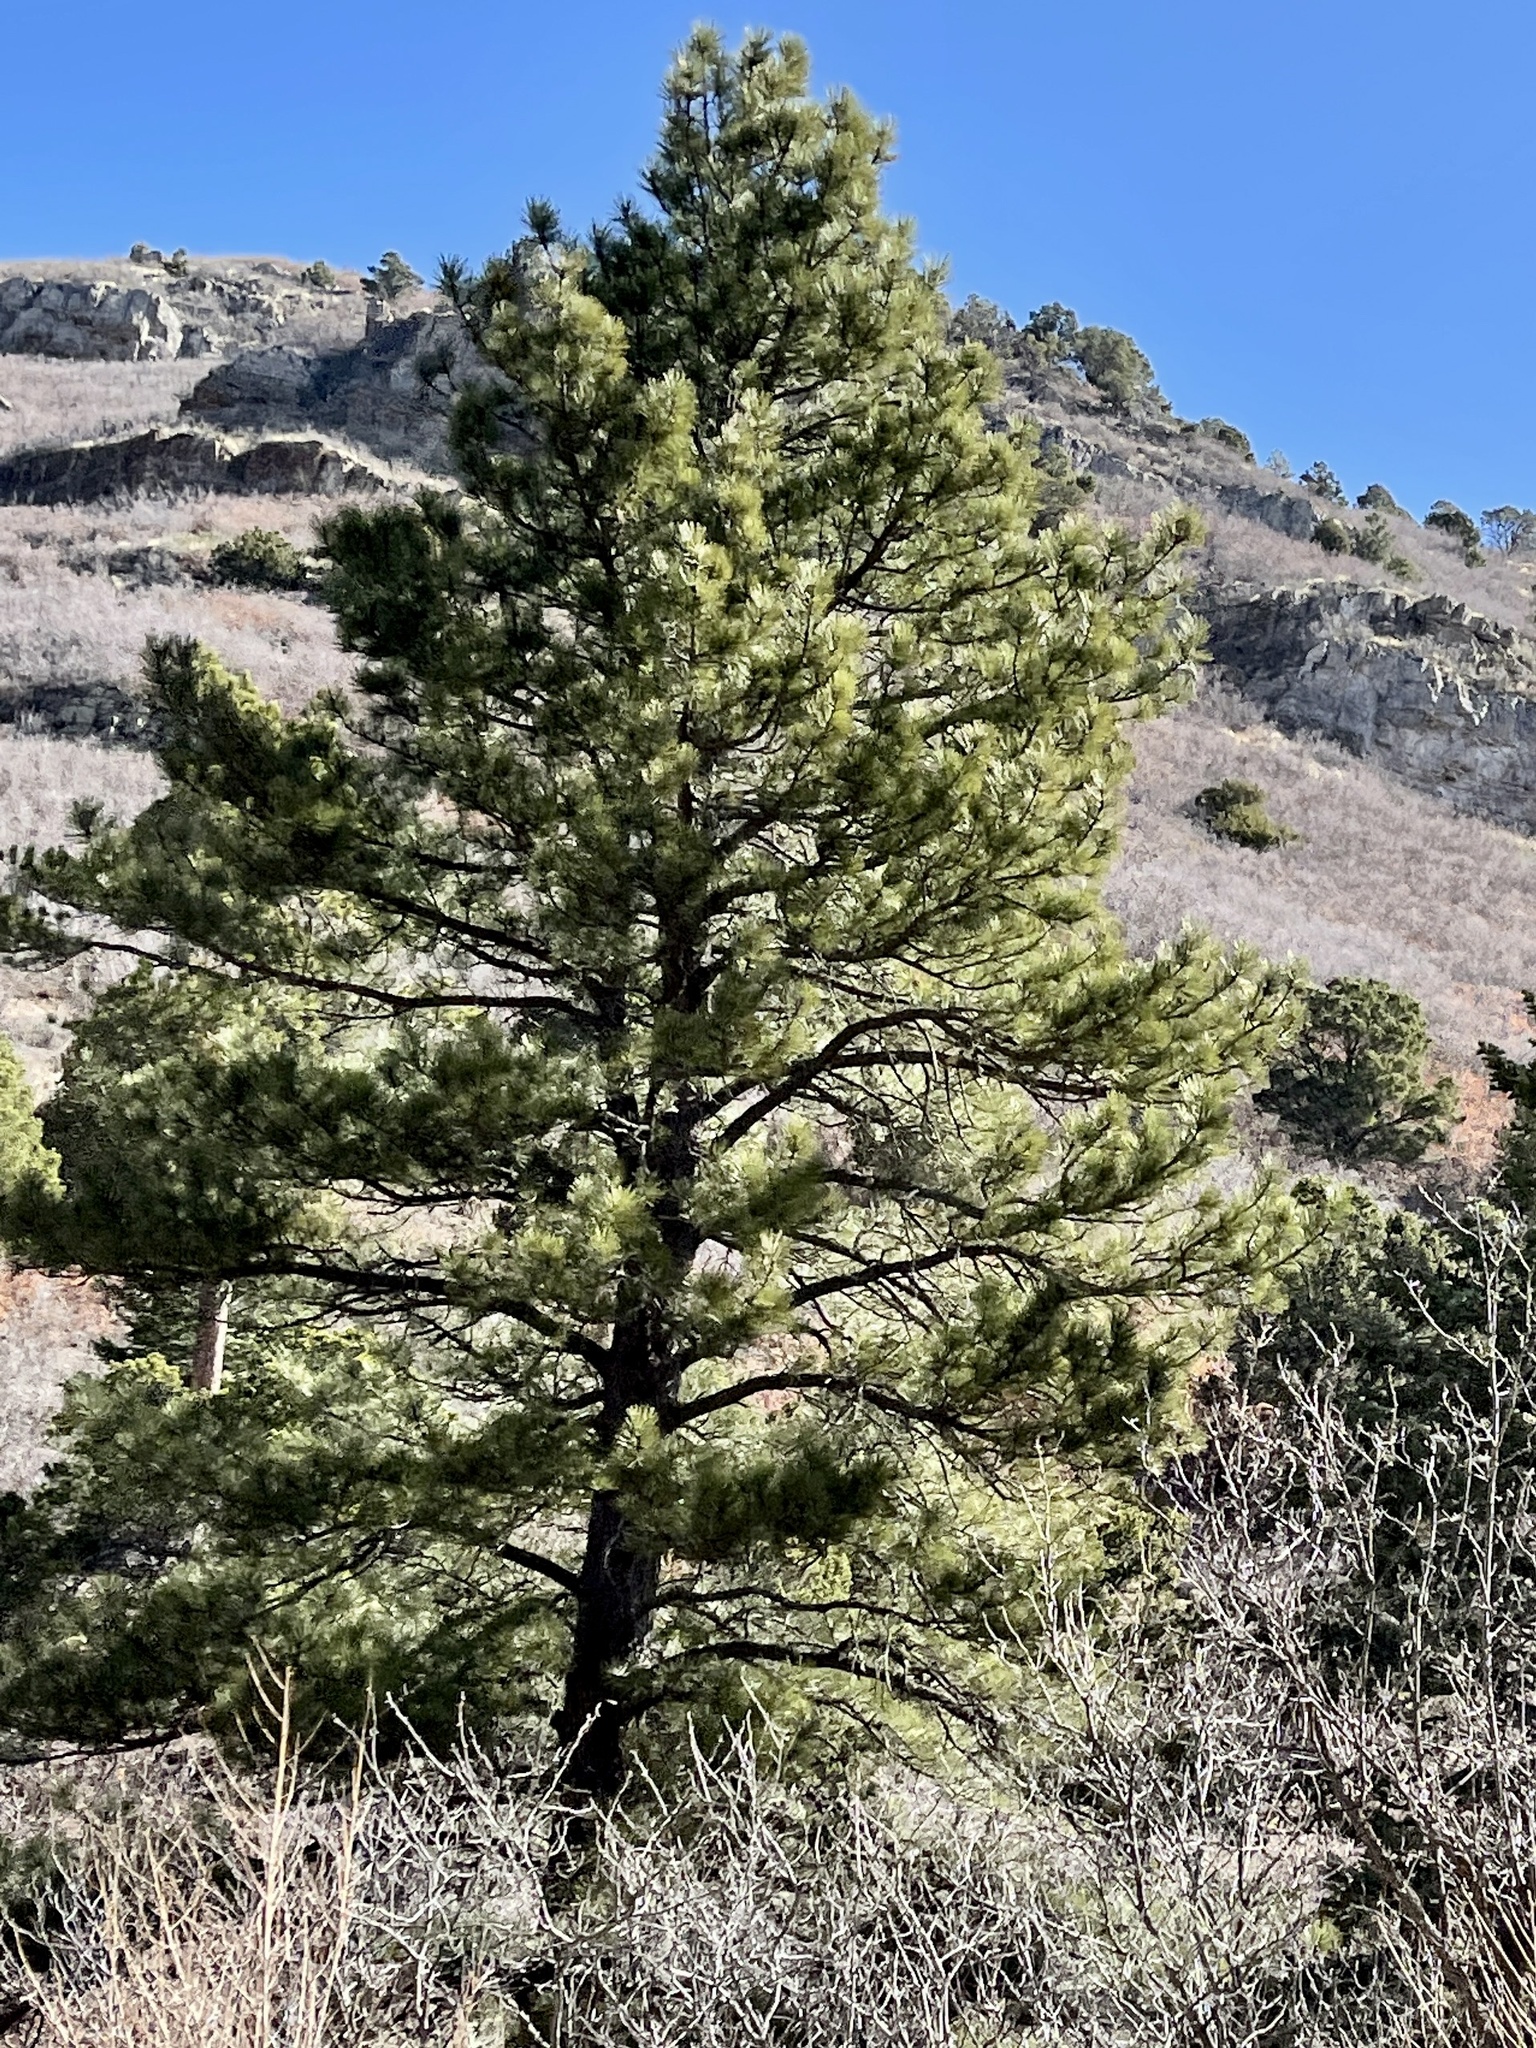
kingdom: Plantae
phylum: Tracheophyta
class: Pinopsida
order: Pinales
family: Pinaceae
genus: Pinus
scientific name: Pinus ponderosa
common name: Western yellow-pine
